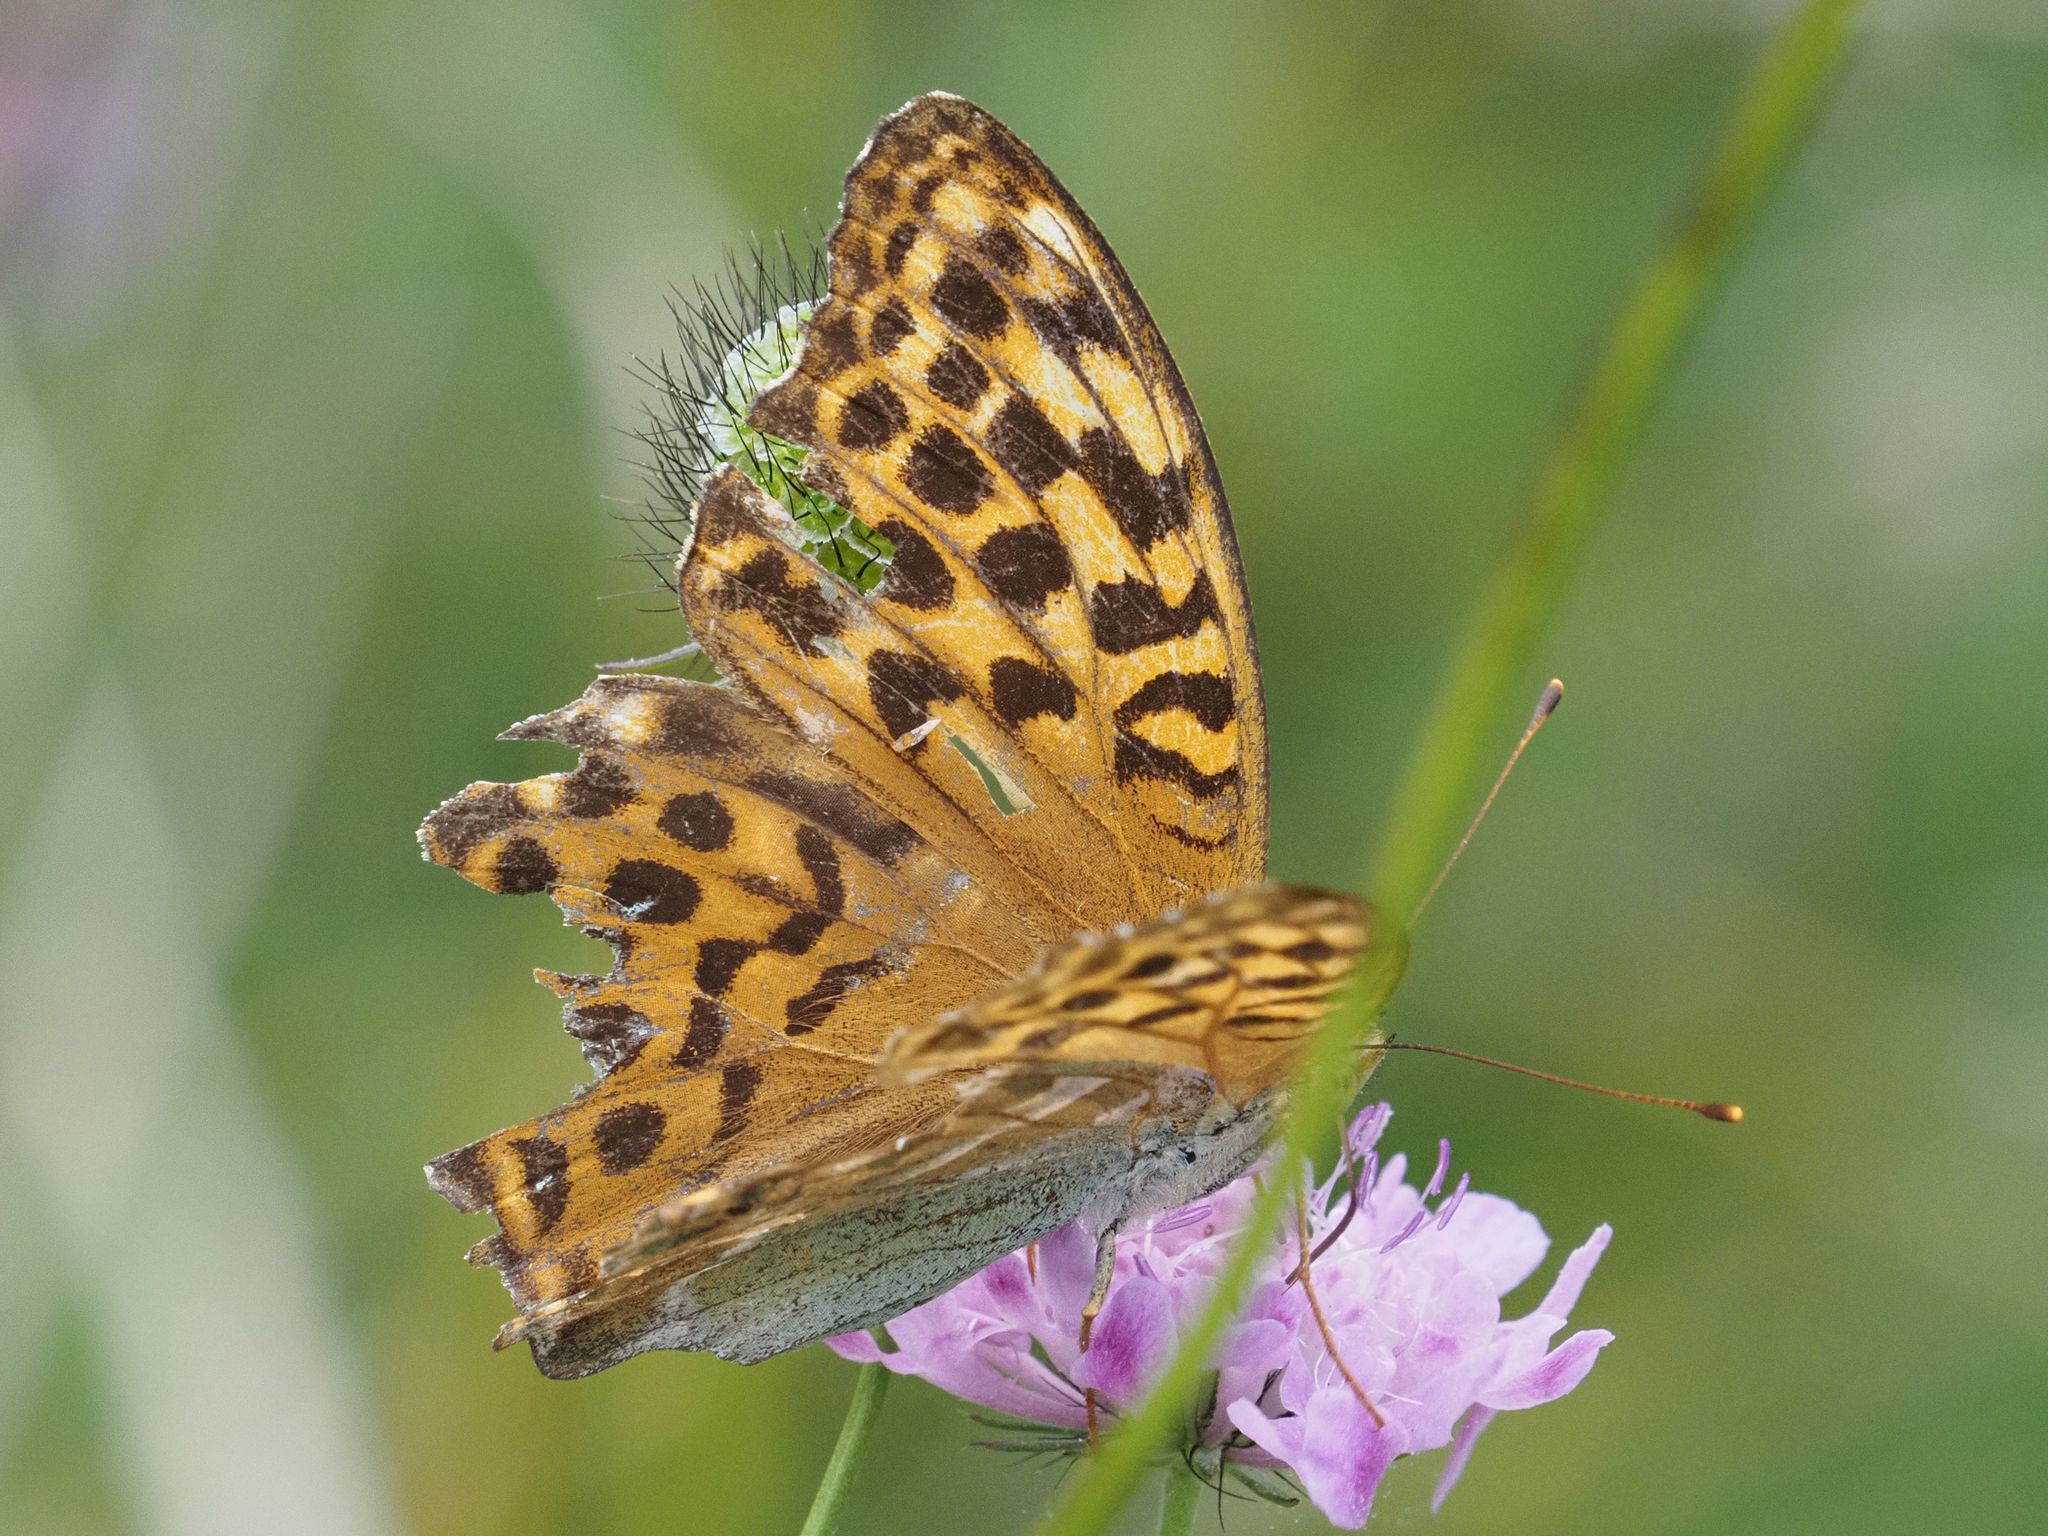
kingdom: Animalia
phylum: Arthropoda
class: Insecta
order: Lepidoptera
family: Nymphalidae
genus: Argynnis
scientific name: Argynnis paphia
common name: Silver-washed fritillary
